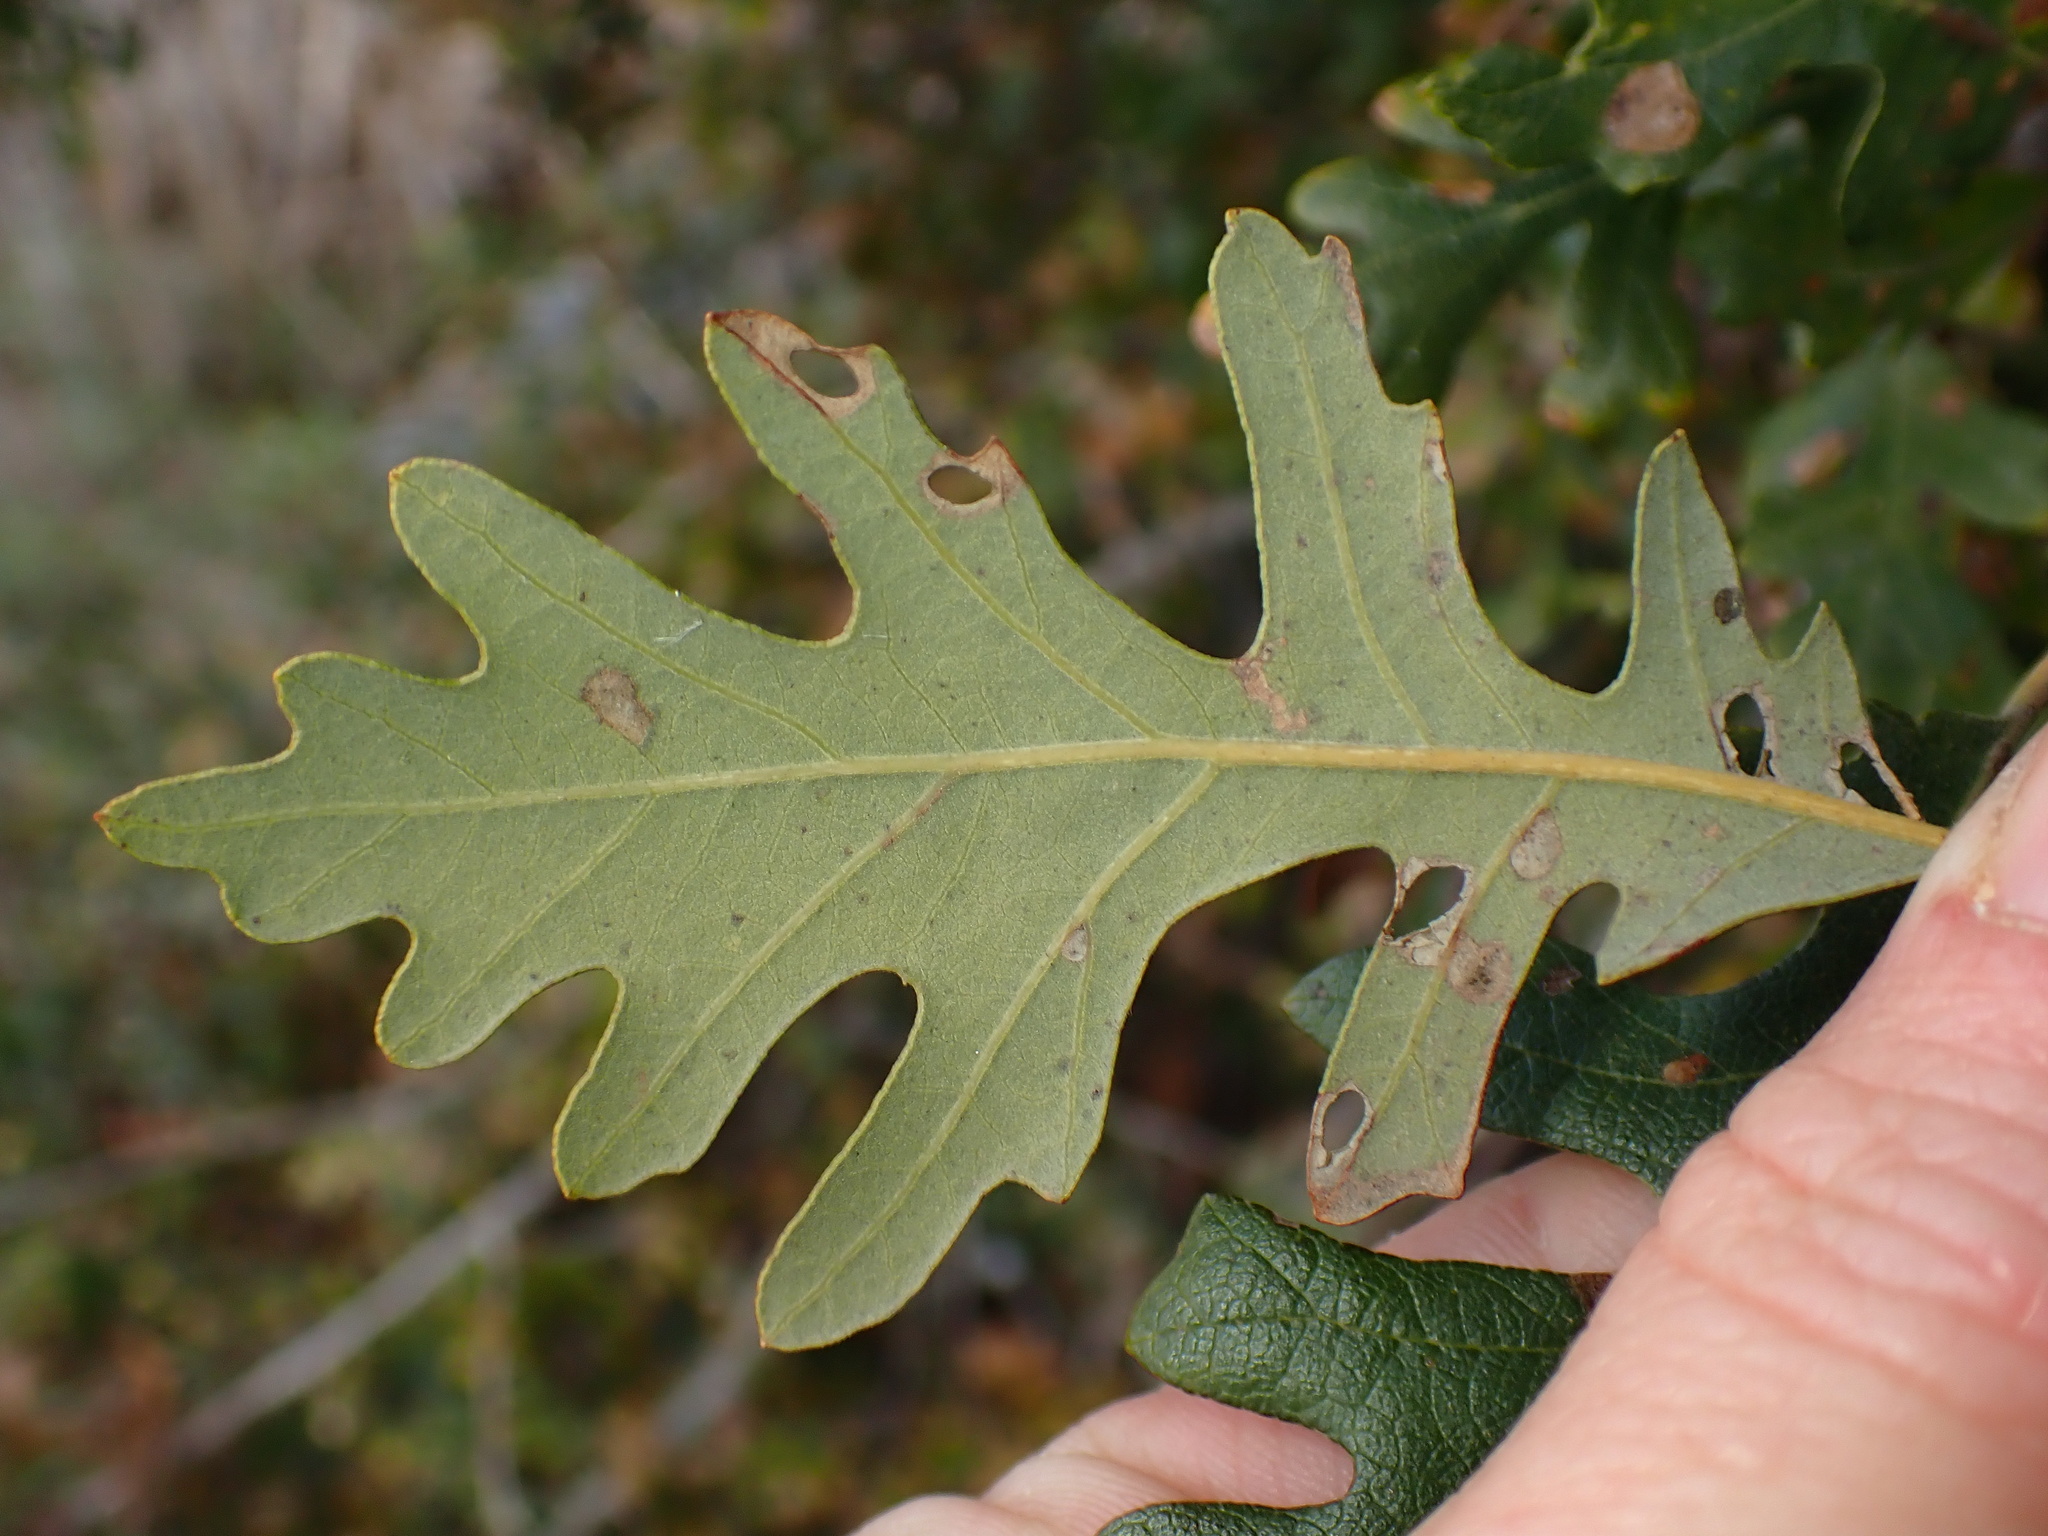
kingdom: Plantae
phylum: Tracheophyta
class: Magnoliopsida
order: Fagales
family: Fagaceae
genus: Quercus
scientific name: Quercus lobata
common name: Valley oak
